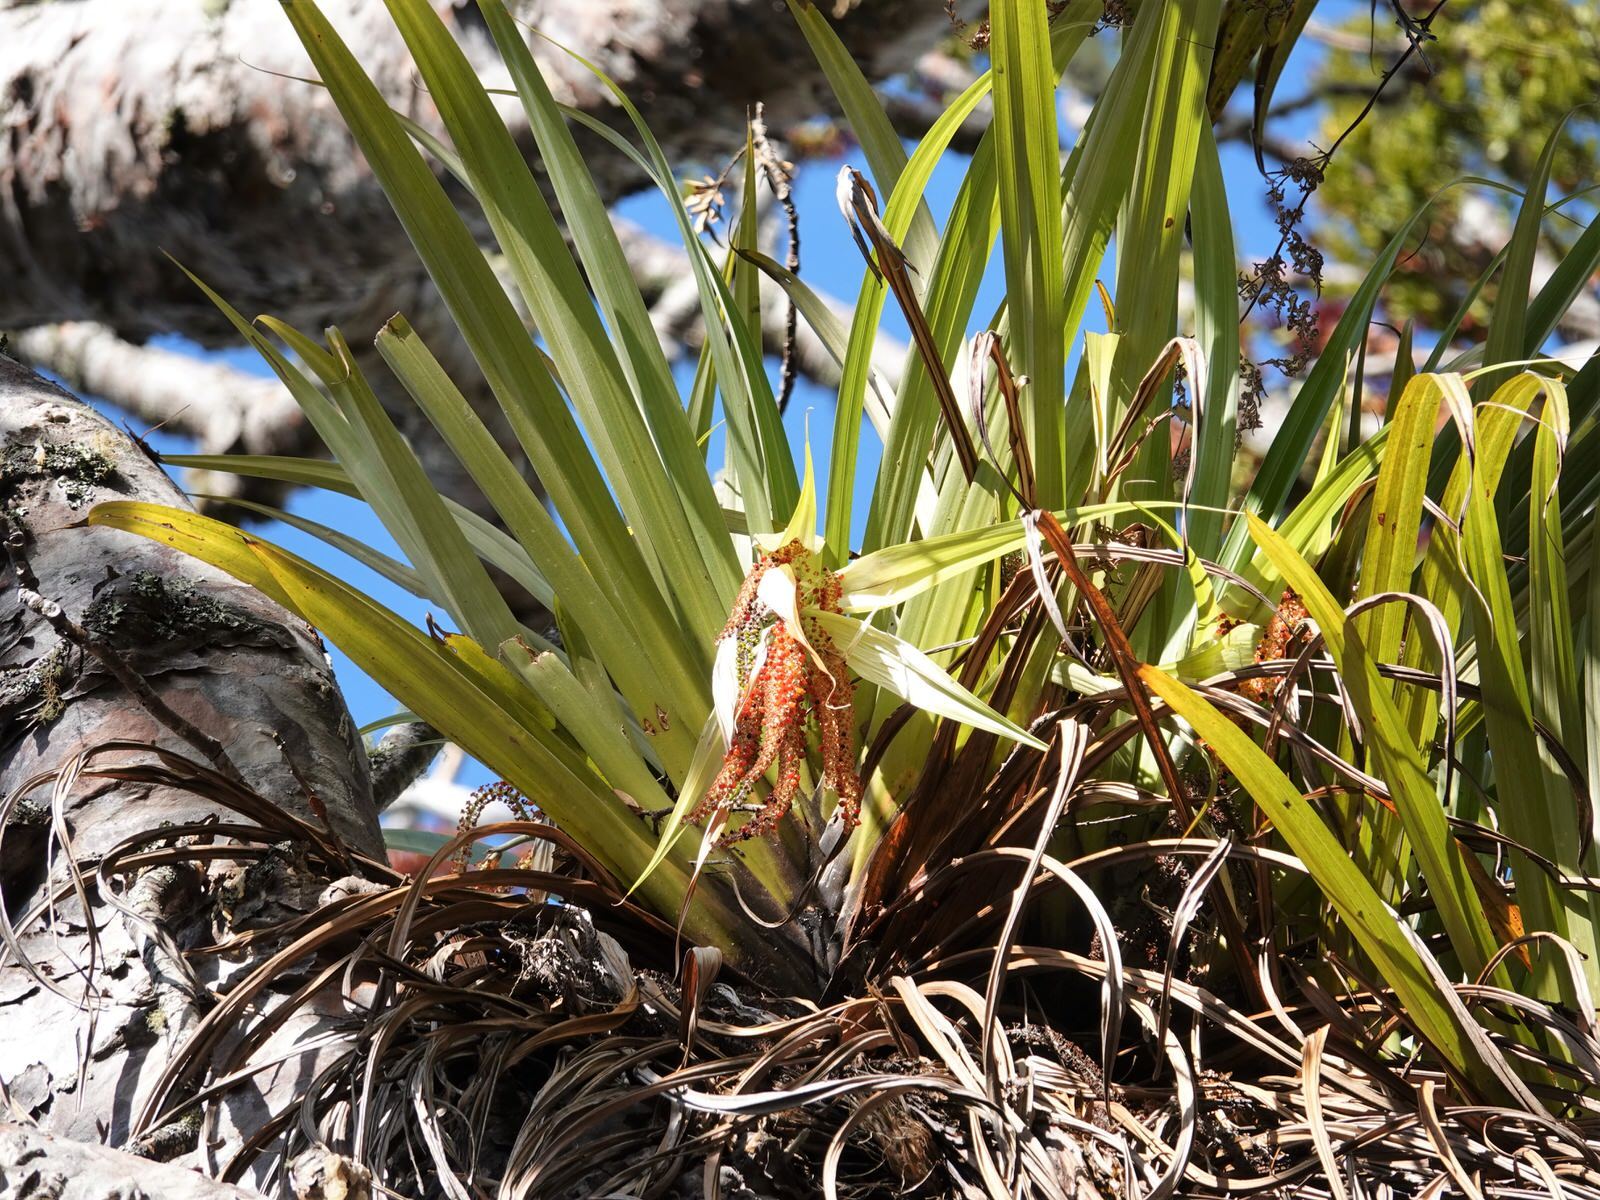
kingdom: Plantae
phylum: Tracheophyta
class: Liliopsida
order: Asparagales
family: Asteliaceae
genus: Astelia
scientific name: Astelia hastata
